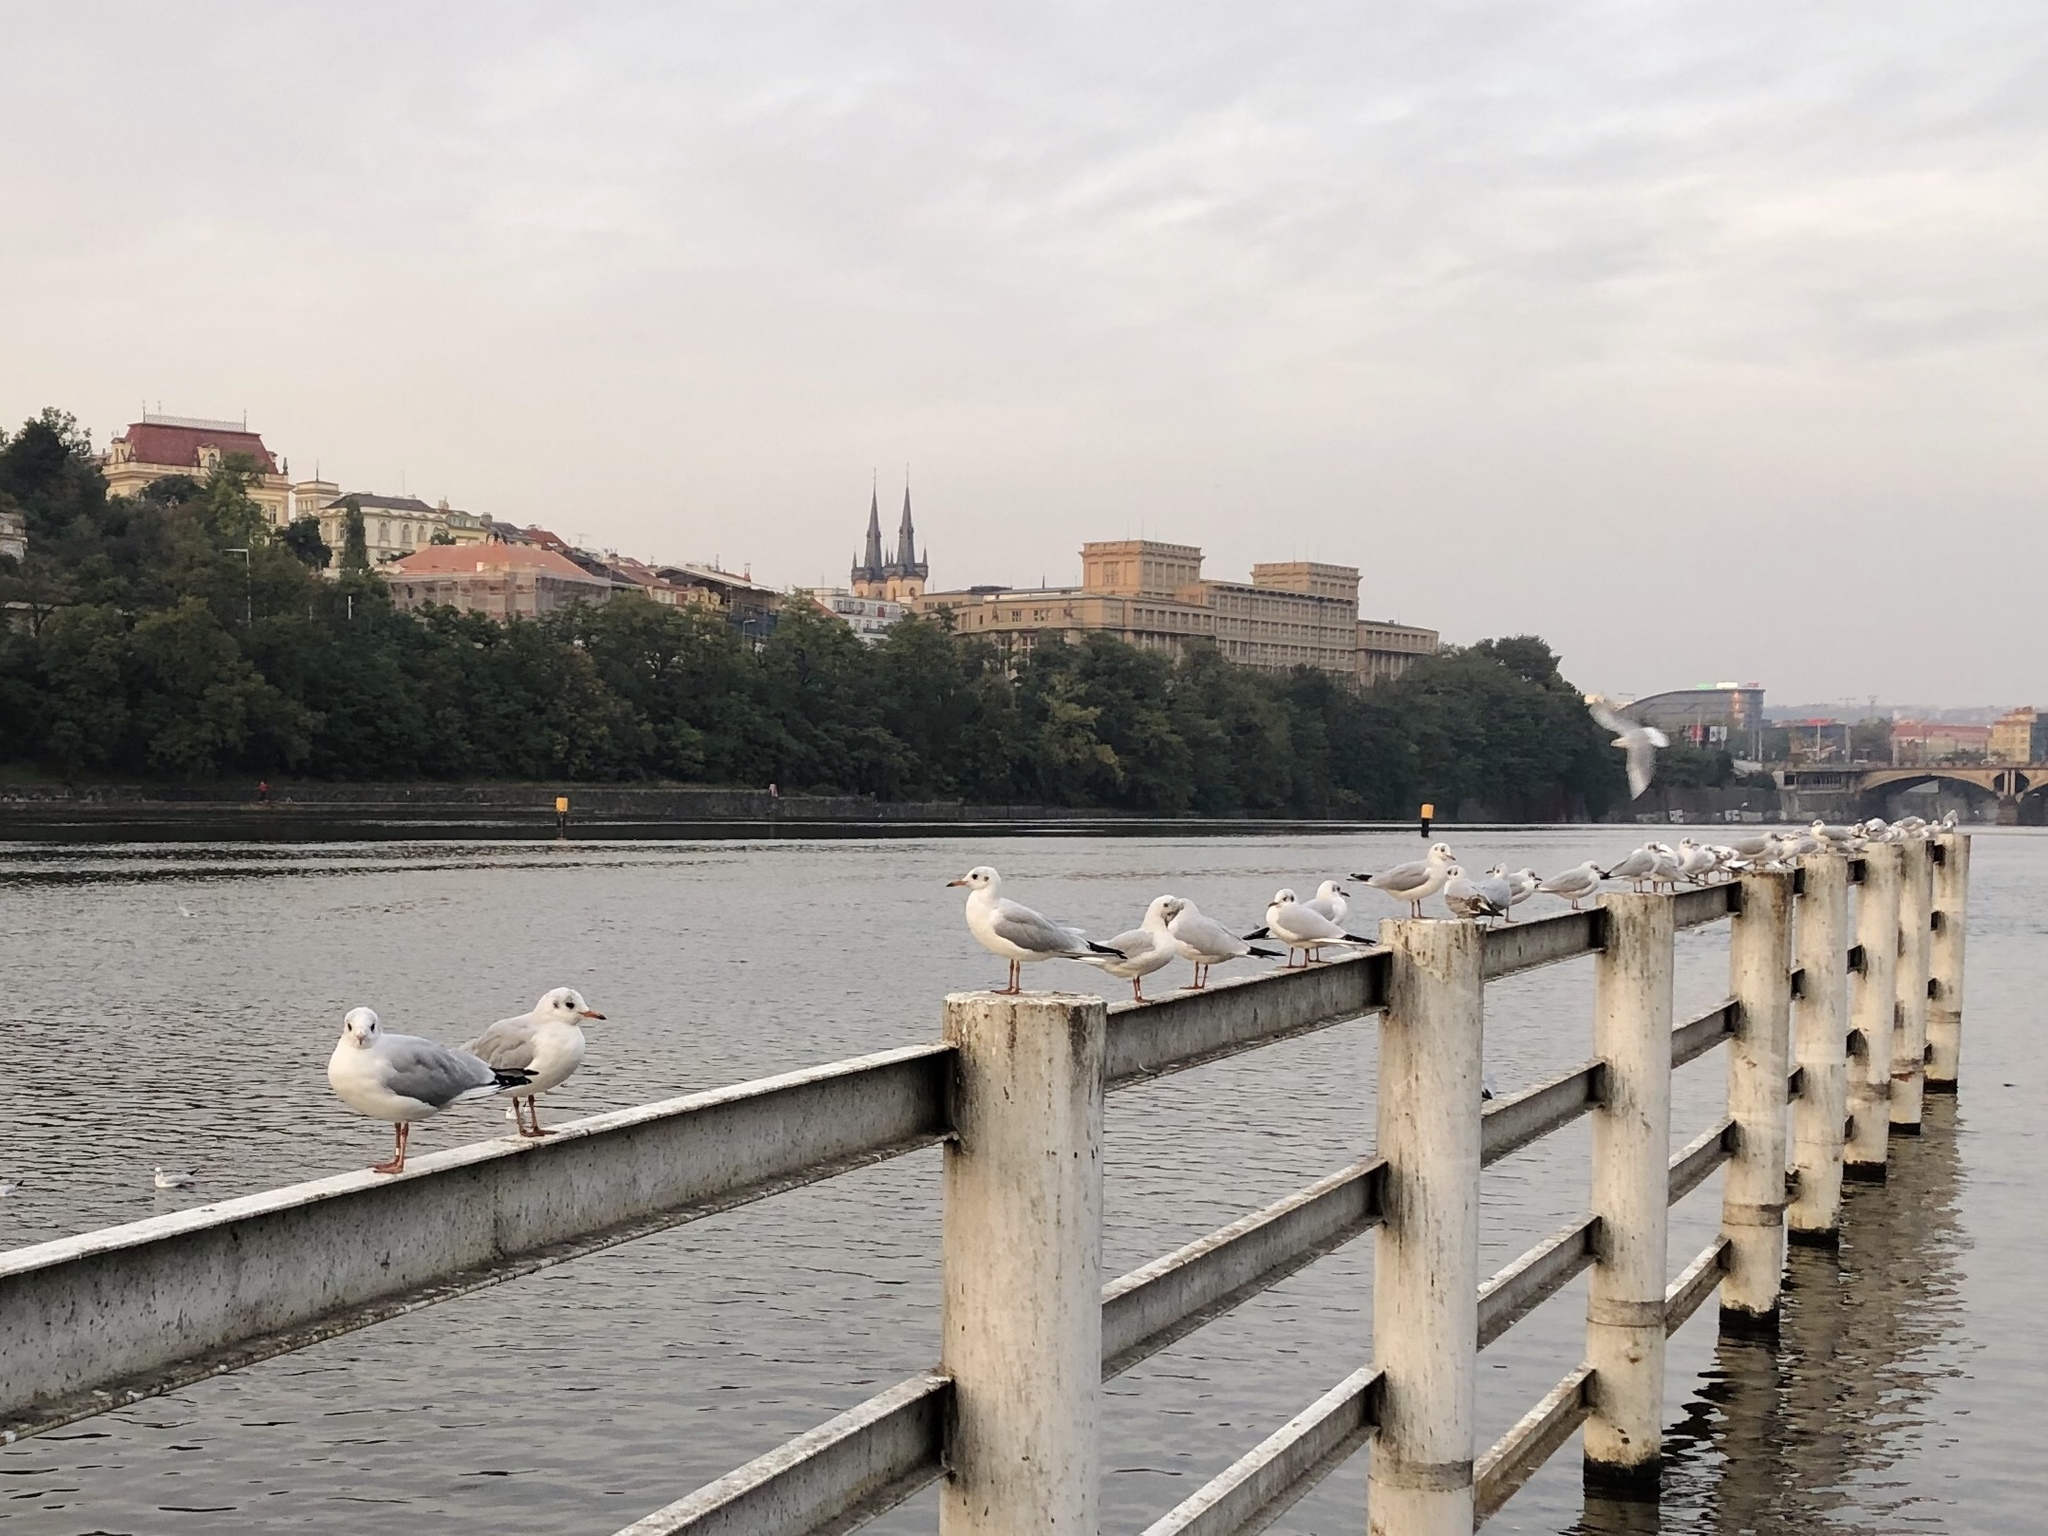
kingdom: Animalia
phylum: Chordata
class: Aves
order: Charadriiformes
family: Laridae
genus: Chroicocephalus
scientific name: Chroicocephalus ridibundus
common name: Black-headed gull
